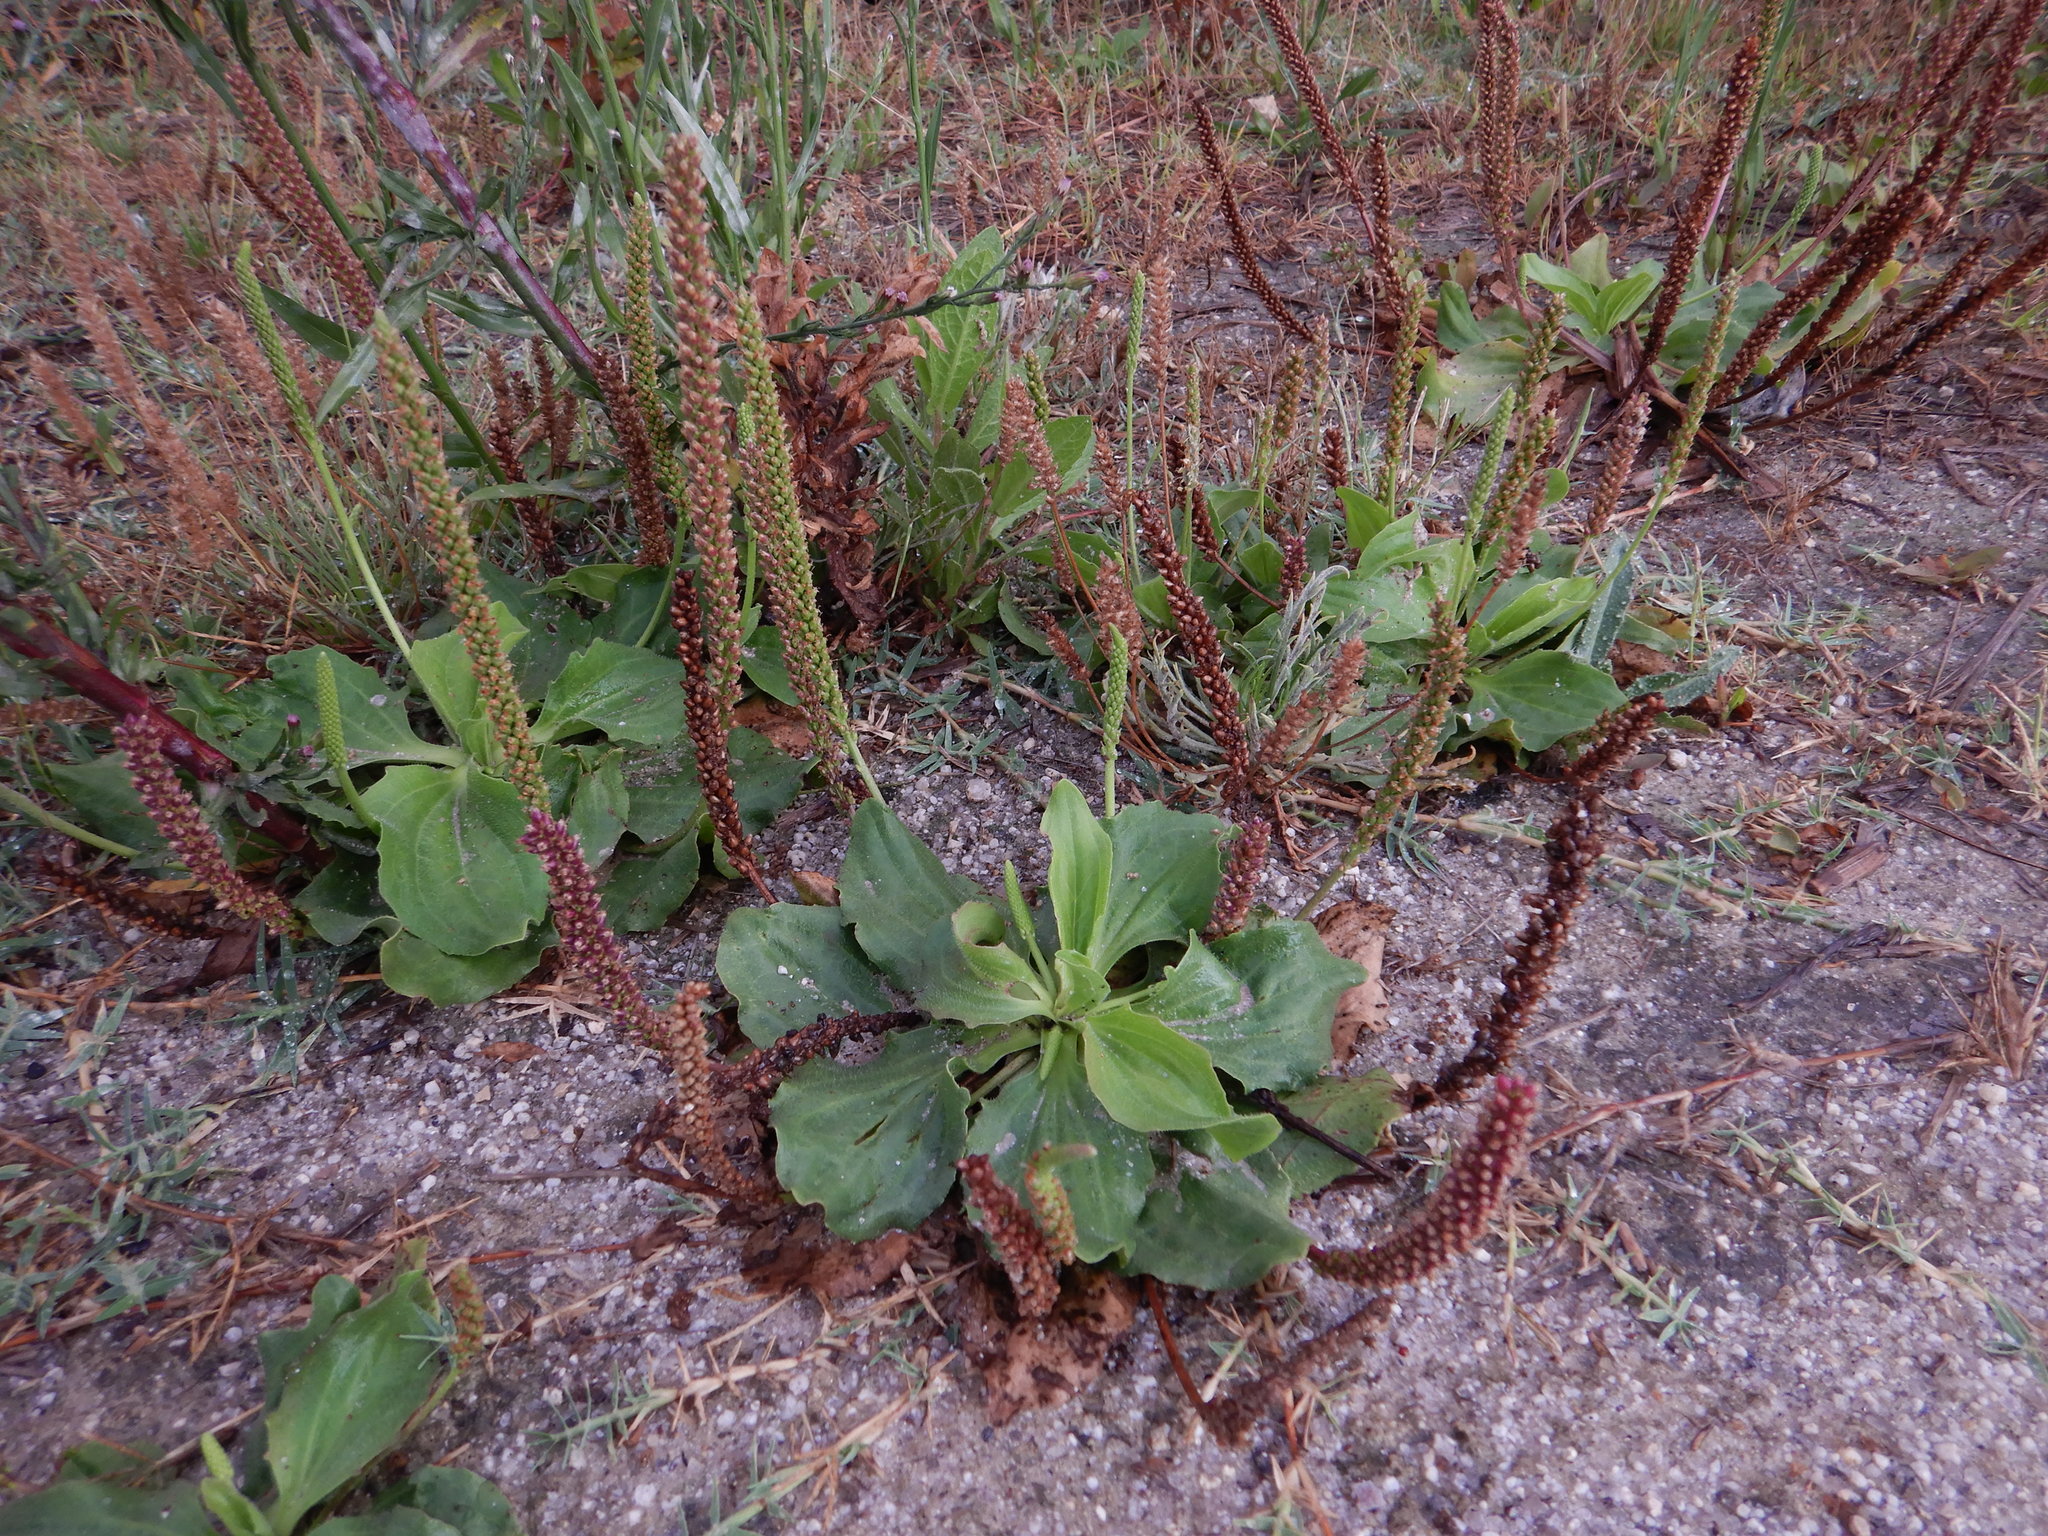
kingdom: Plantae
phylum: Tracheophyta
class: Magnoliopsida
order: Lamiales
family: Plantaginaceae
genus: Plantago
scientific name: Plantago major
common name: Common plantain
